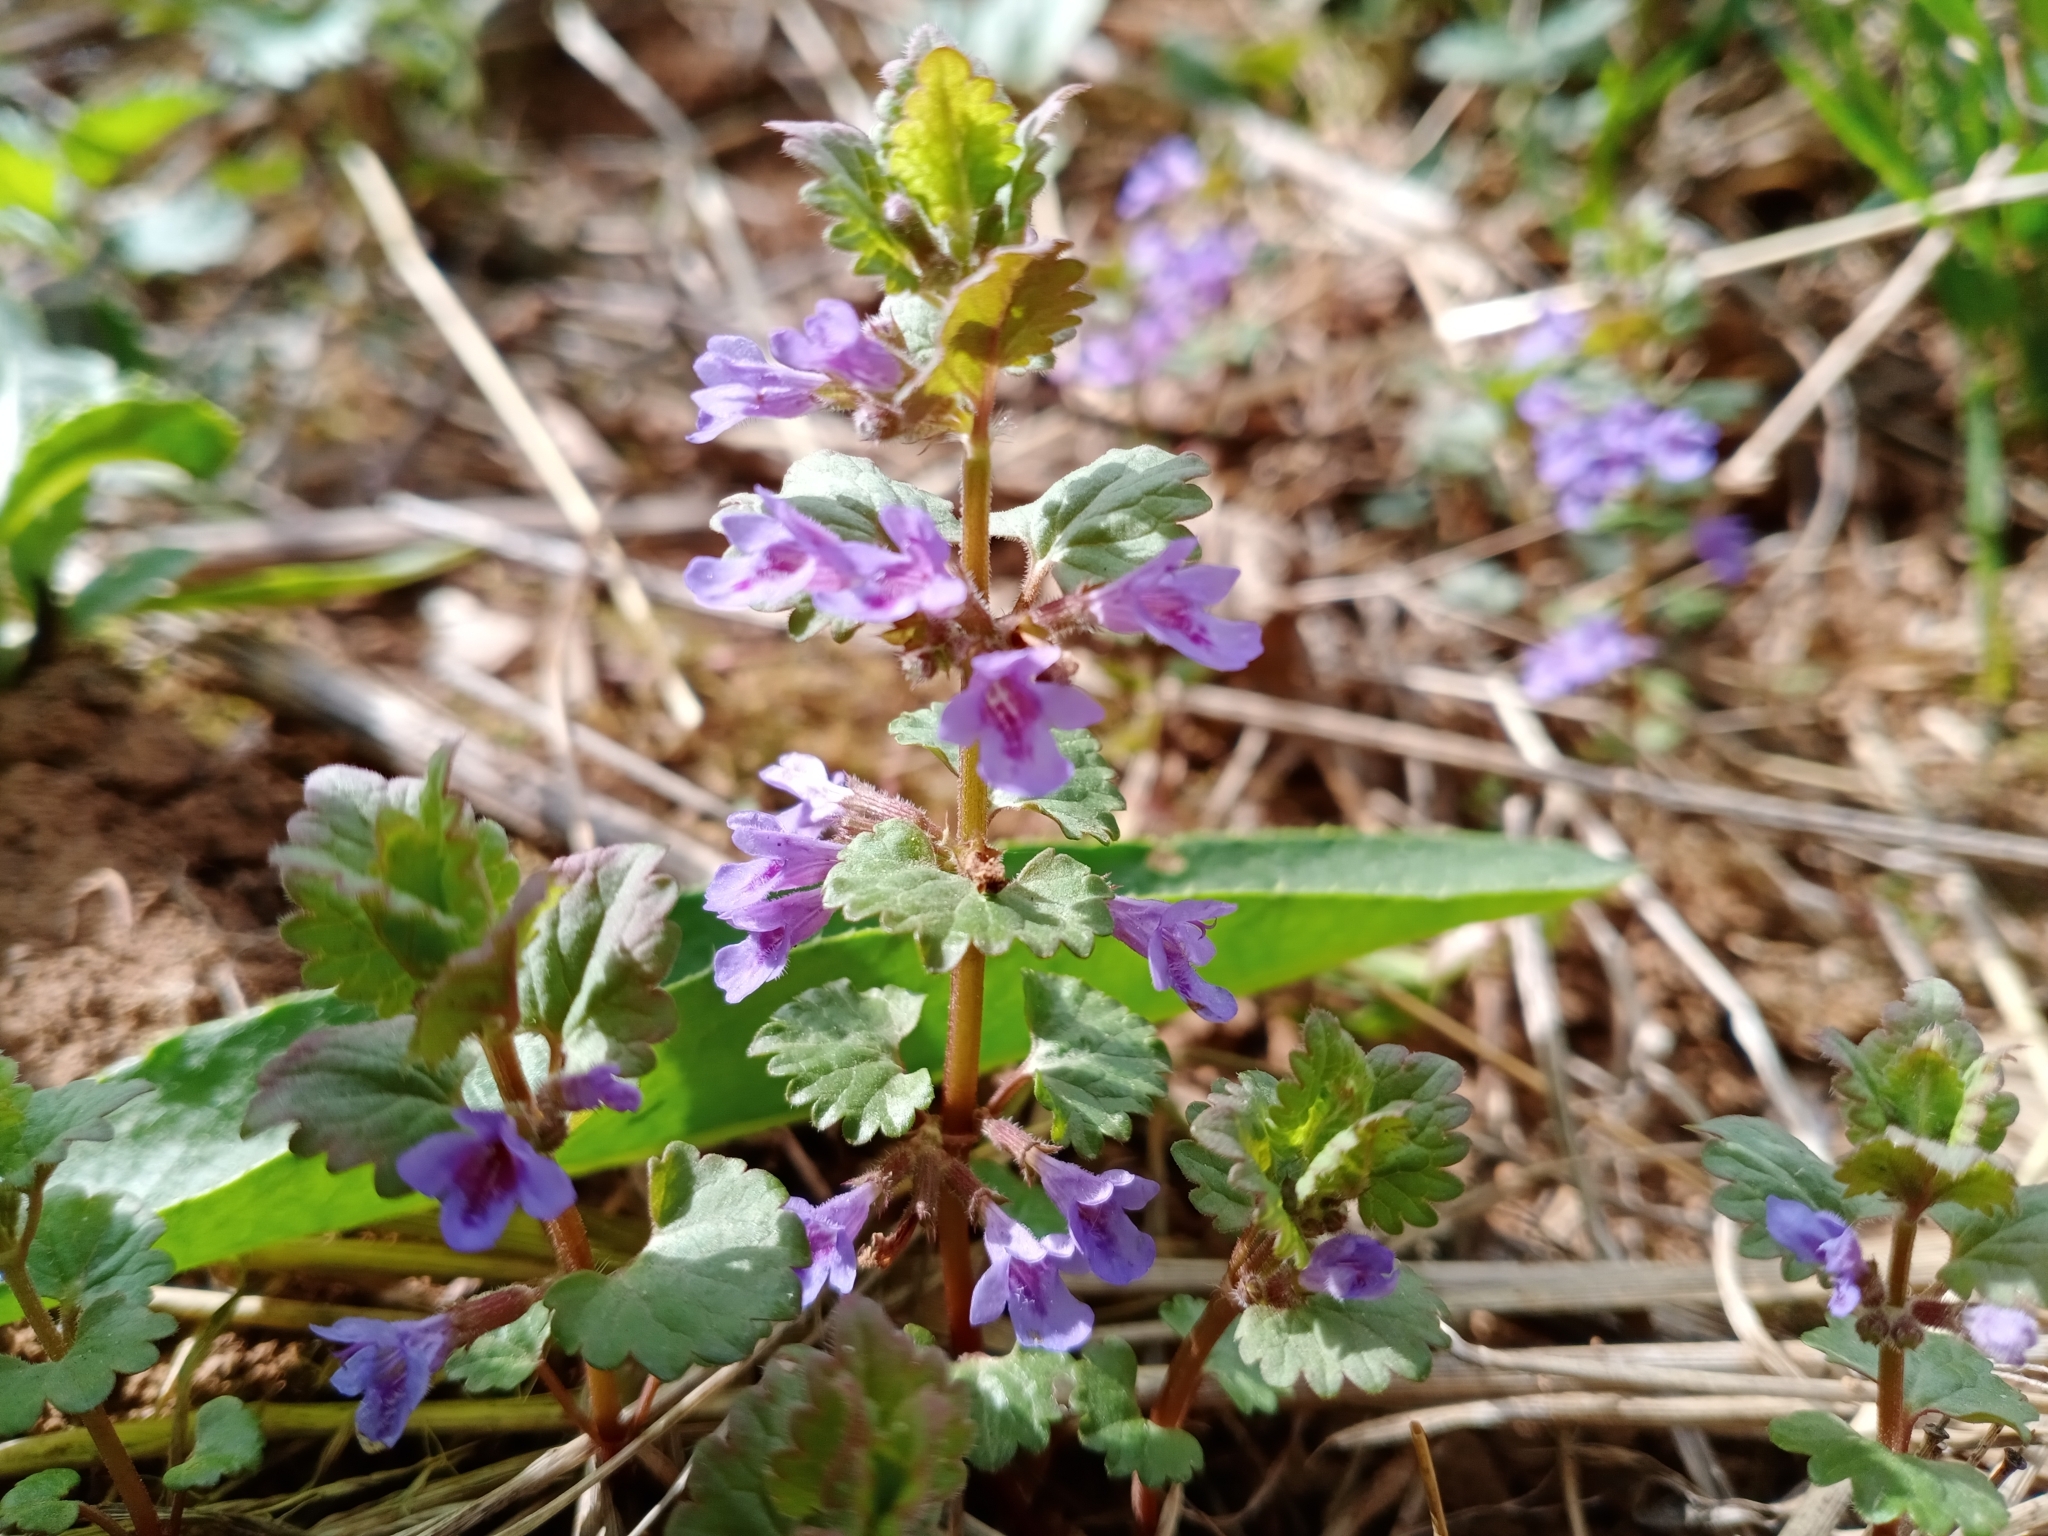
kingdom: Plantae
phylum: Tracheophyta
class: Magnoliopsida
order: Lamiales
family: Lamiaceae
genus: Glechoma
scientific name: Glechoma hederacea
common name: Ground ivy
